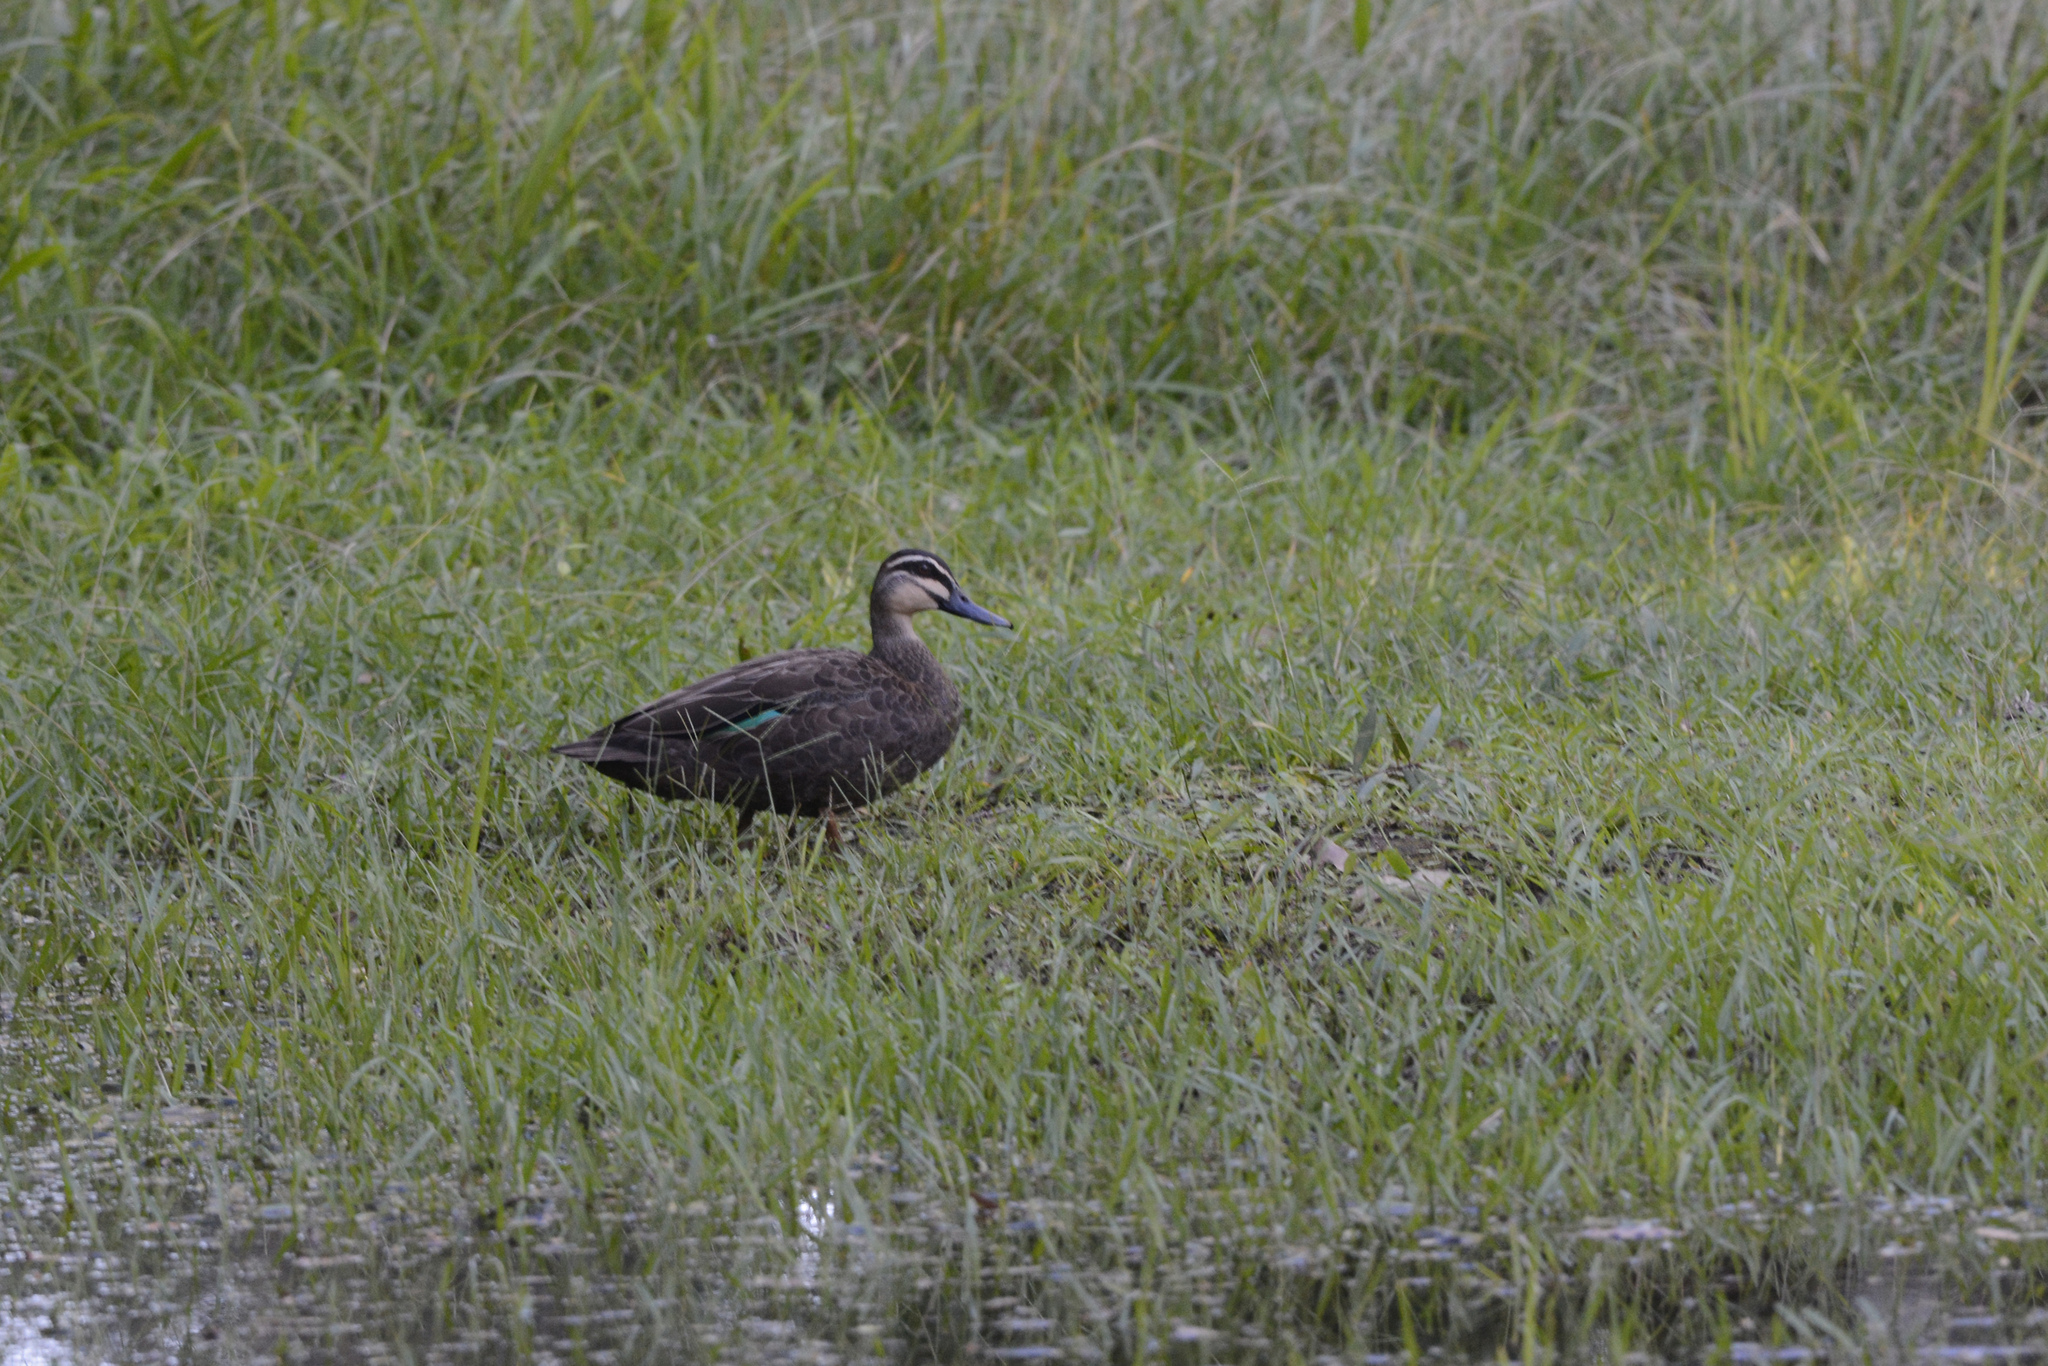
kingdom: Animalia
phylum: Chordata
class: Aves
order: Anseriformes
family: Anatidae
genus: Anas
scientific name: Anas superciliosa
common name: Pacific black duck
